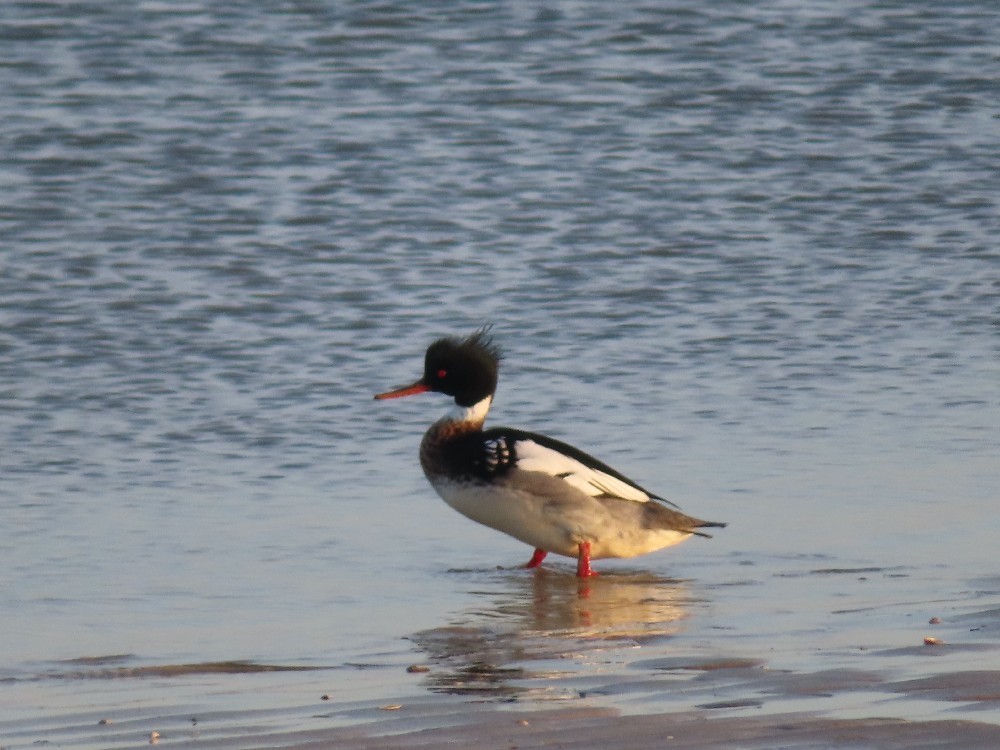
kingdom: Animalia
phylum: Chordata
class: Aves
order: Anseriformes
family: Anatidae
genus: Mergus
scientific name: Mergus serrator
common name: Red-breasted merganser
